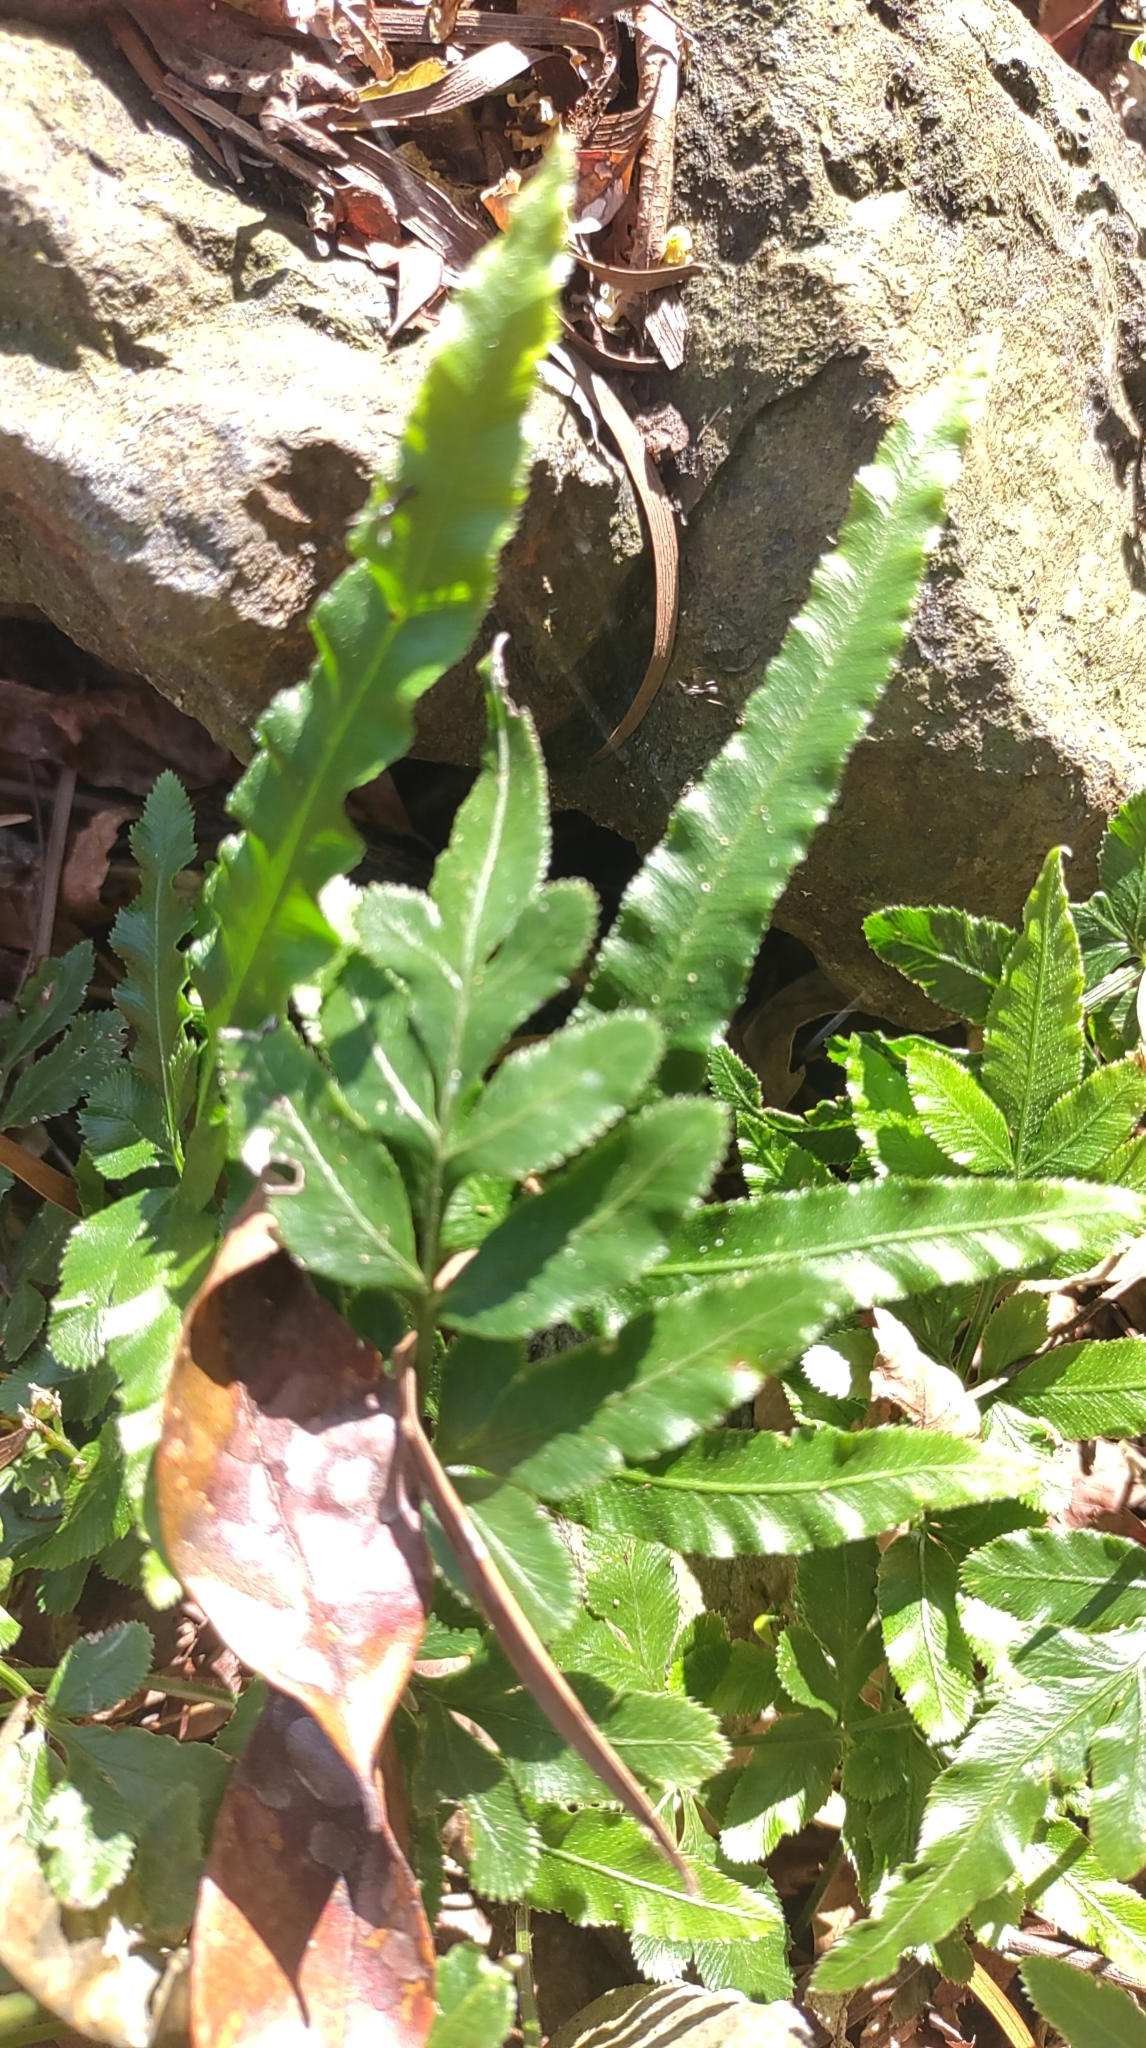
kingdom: Plantae
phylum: Tracheophyta
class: Polypodiopsida
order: Polypodiales
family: Pteridaceae
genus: Pteris
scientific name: Pteris ensiformis
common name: Sword brake
